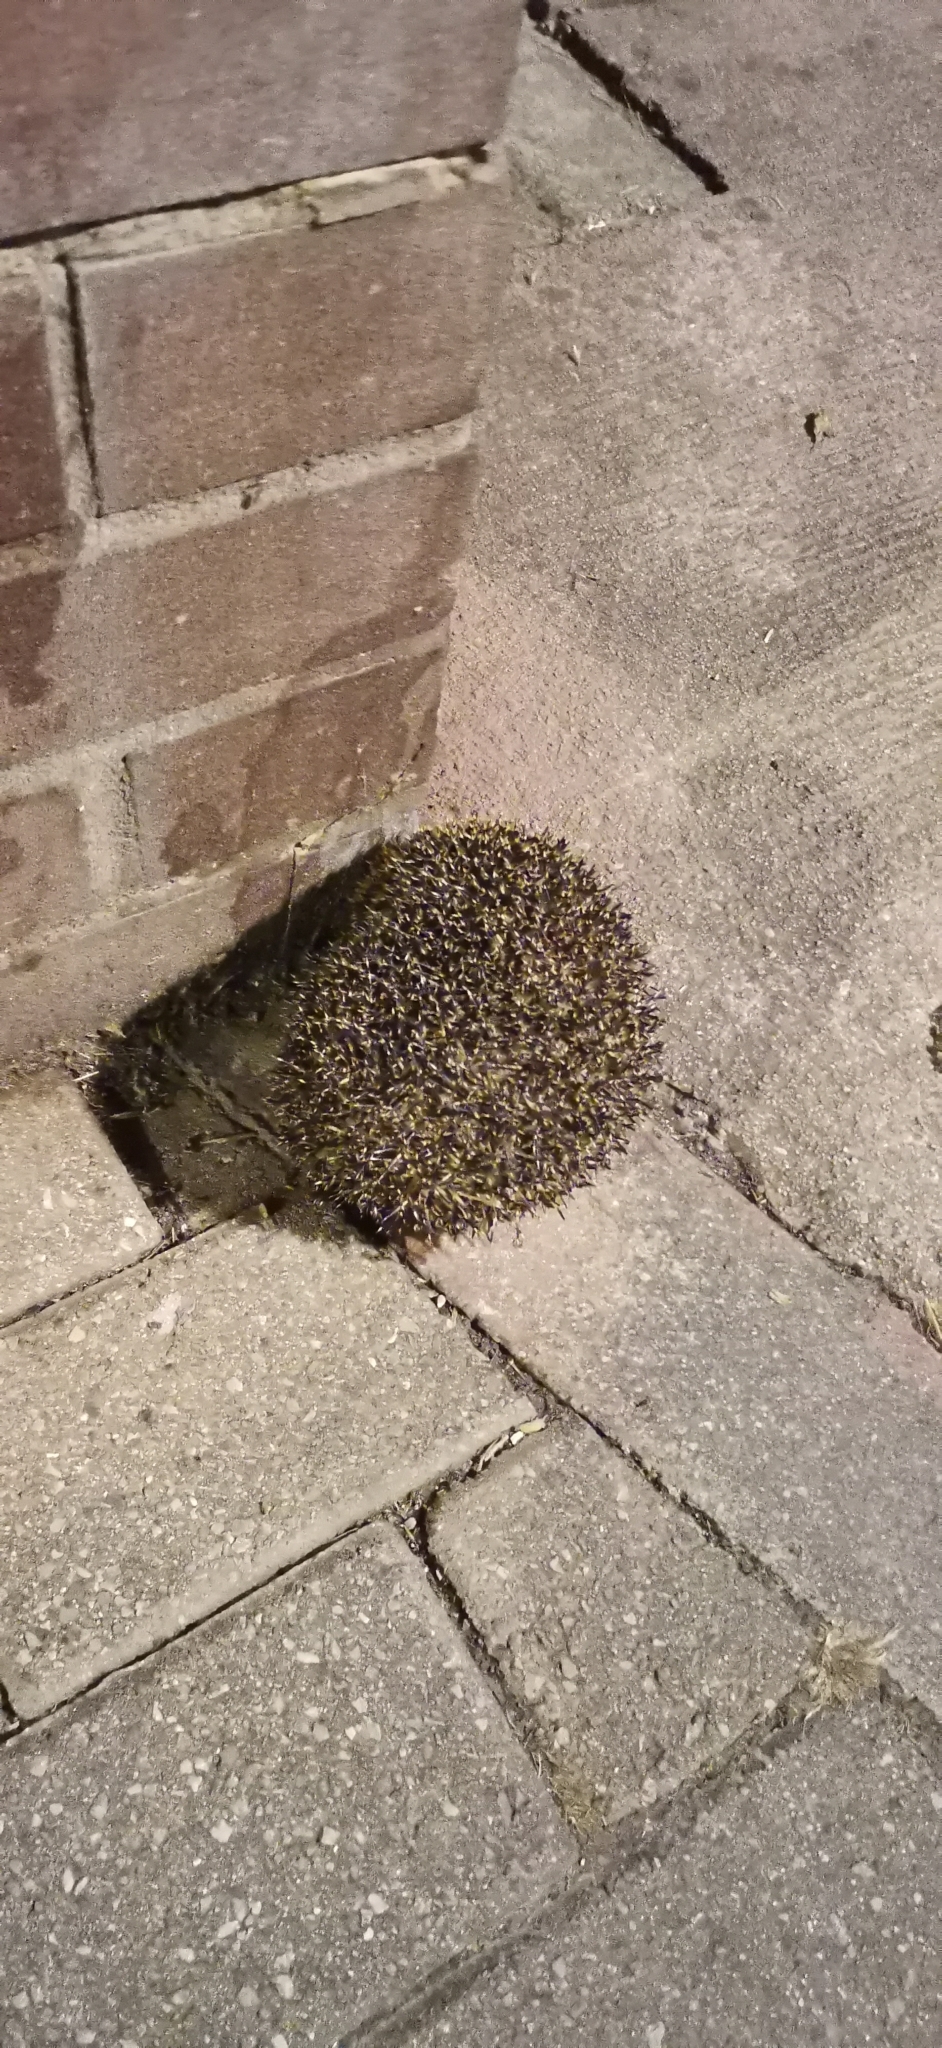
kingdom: Animalia
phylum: Chordata
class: Mammalia
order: Erinaceomorpha
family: Erinaceidae
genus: Erinaceus
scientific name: Erinaceus europaeus
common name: West european hedgehog
